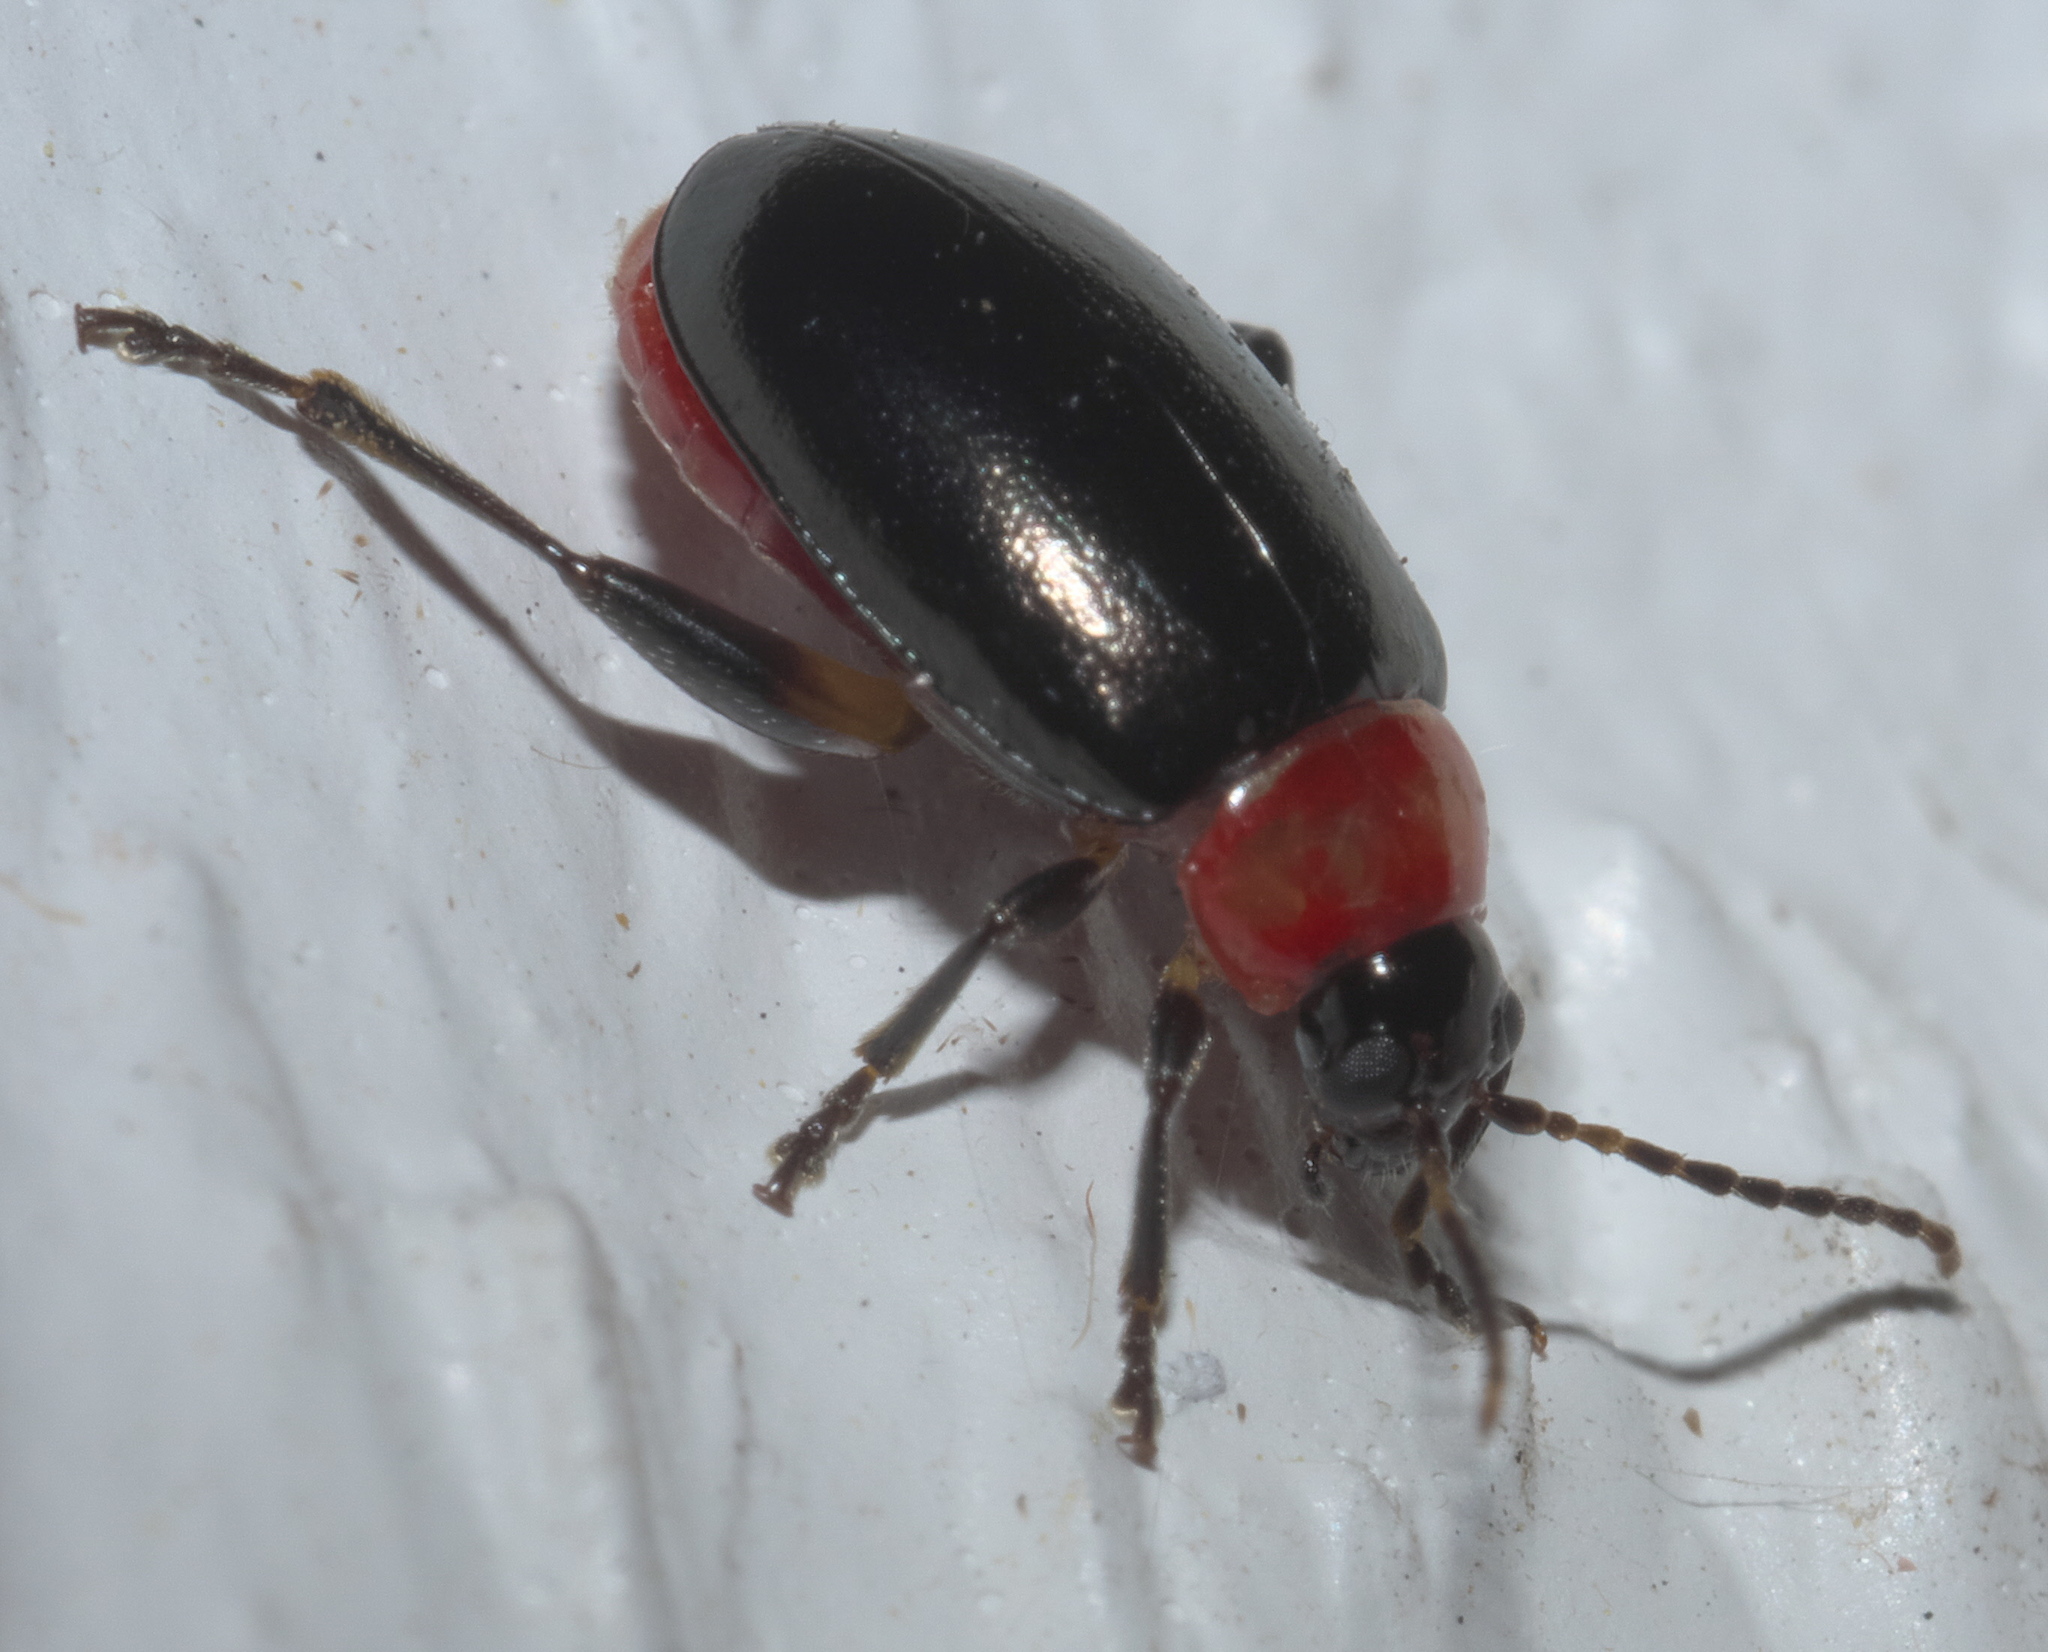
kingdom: Animalia
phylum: Arthropoda
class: Insecta
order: Coleoptera
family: Chrysomelidae
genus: Disonycha
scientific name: Disonycha xanthomelas
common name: Spinach flea beetle
